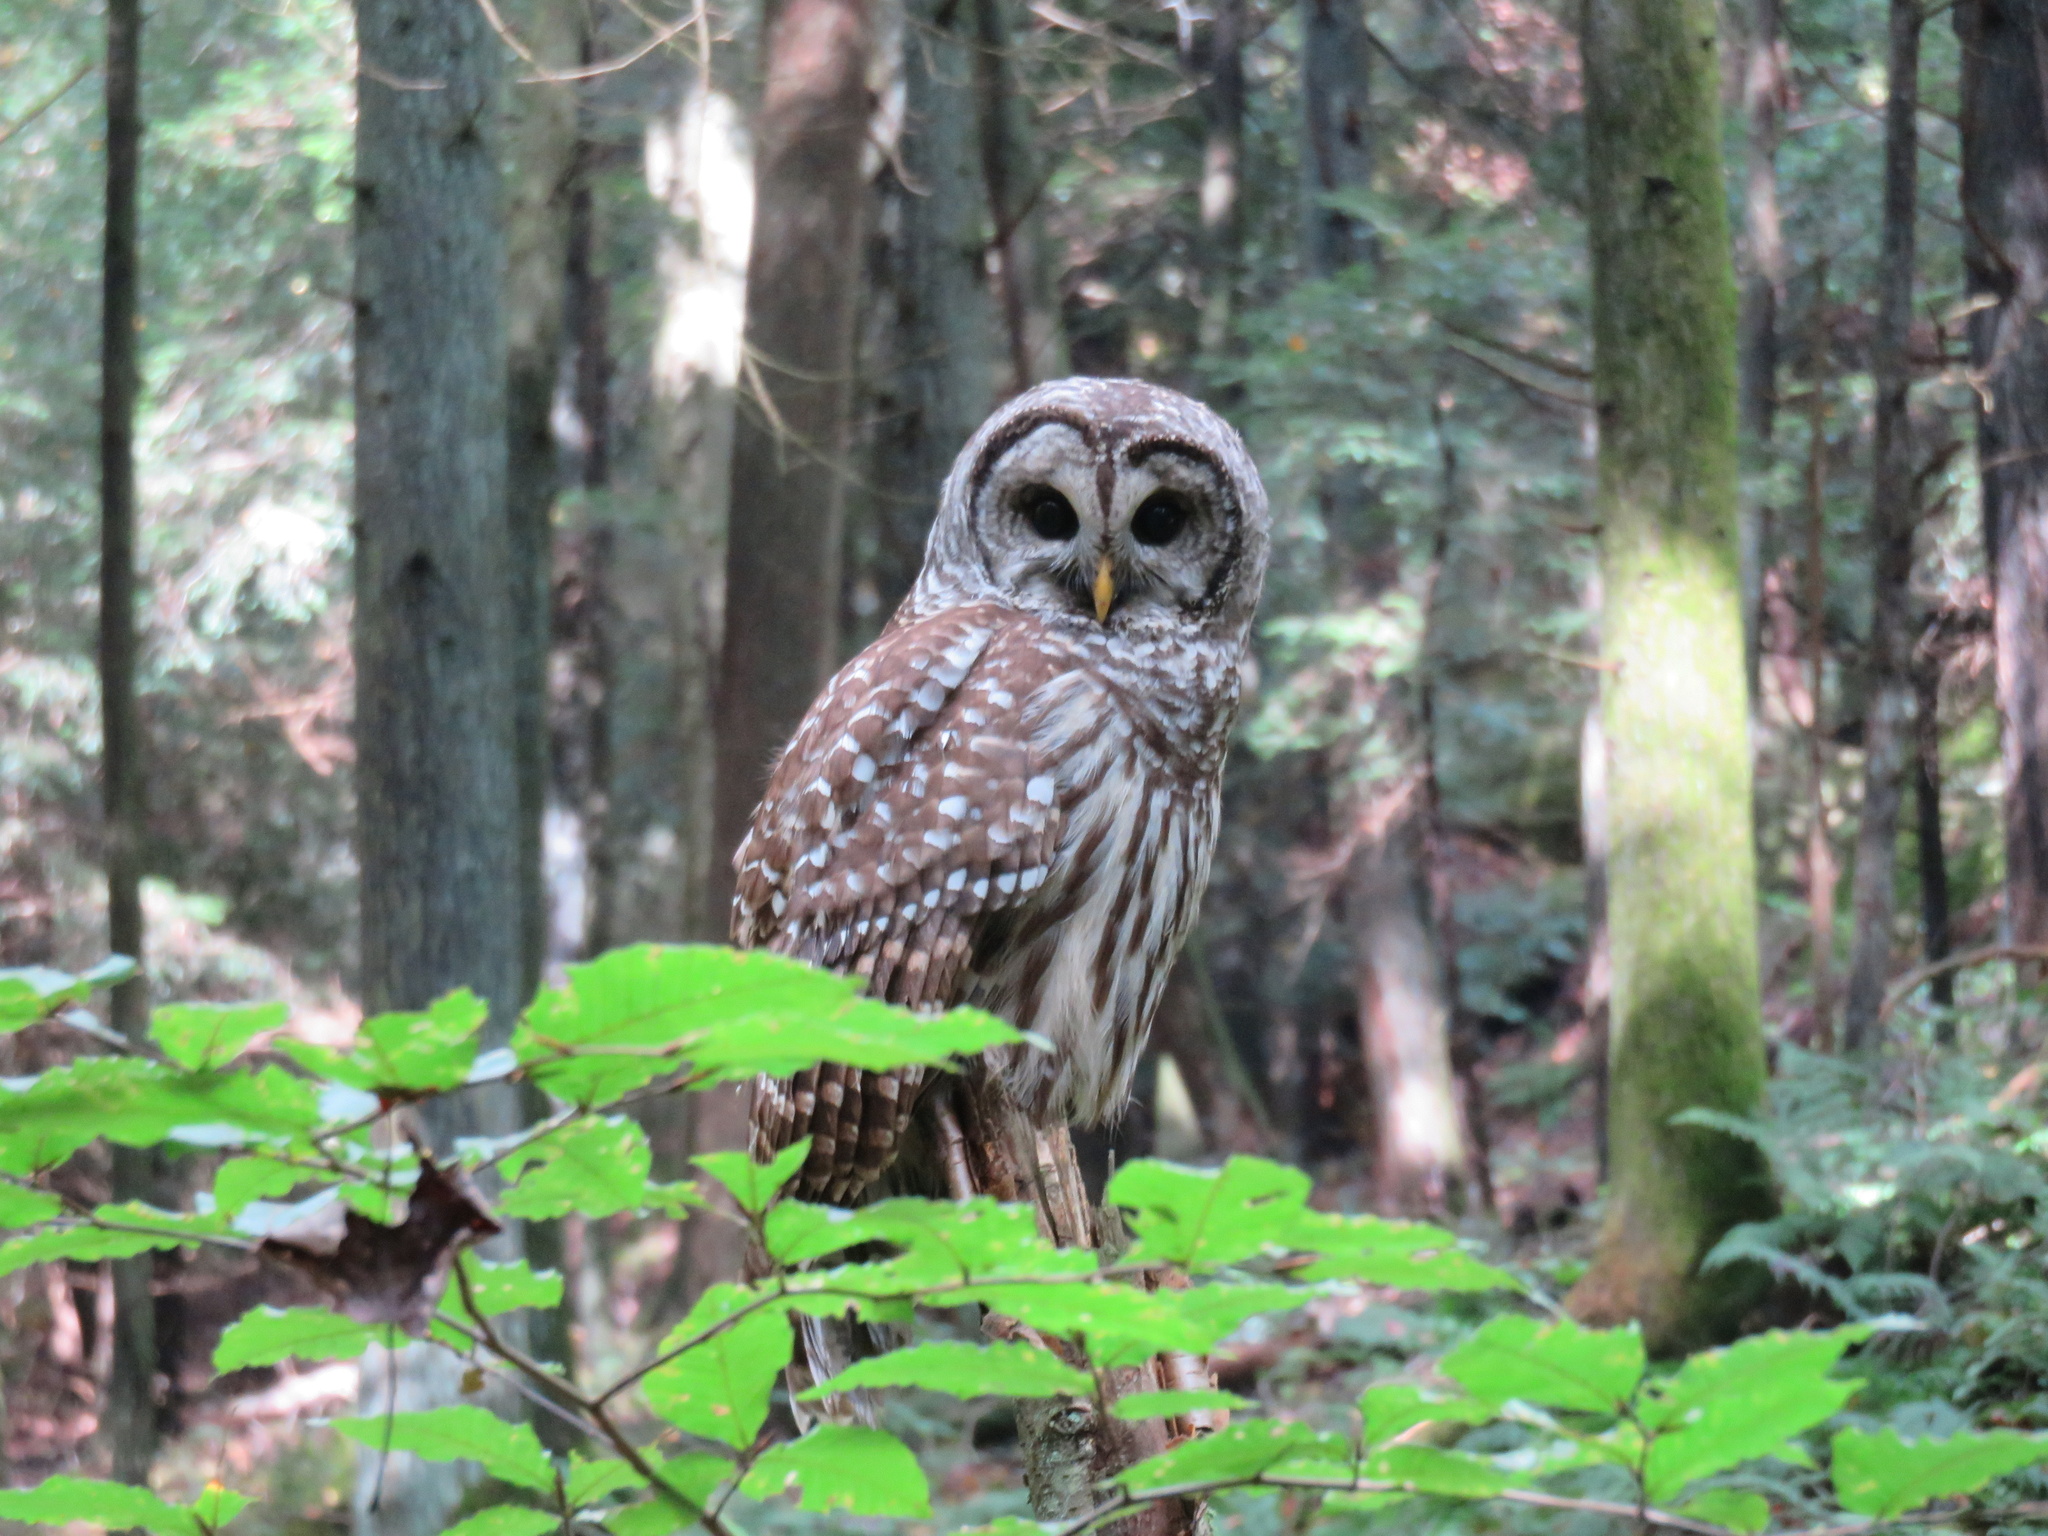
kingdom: Animalia
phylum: Chordata
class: Aves
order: Strigiformes
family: Strigidae
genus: Strix
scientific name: Strix varia
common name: Barred owl
